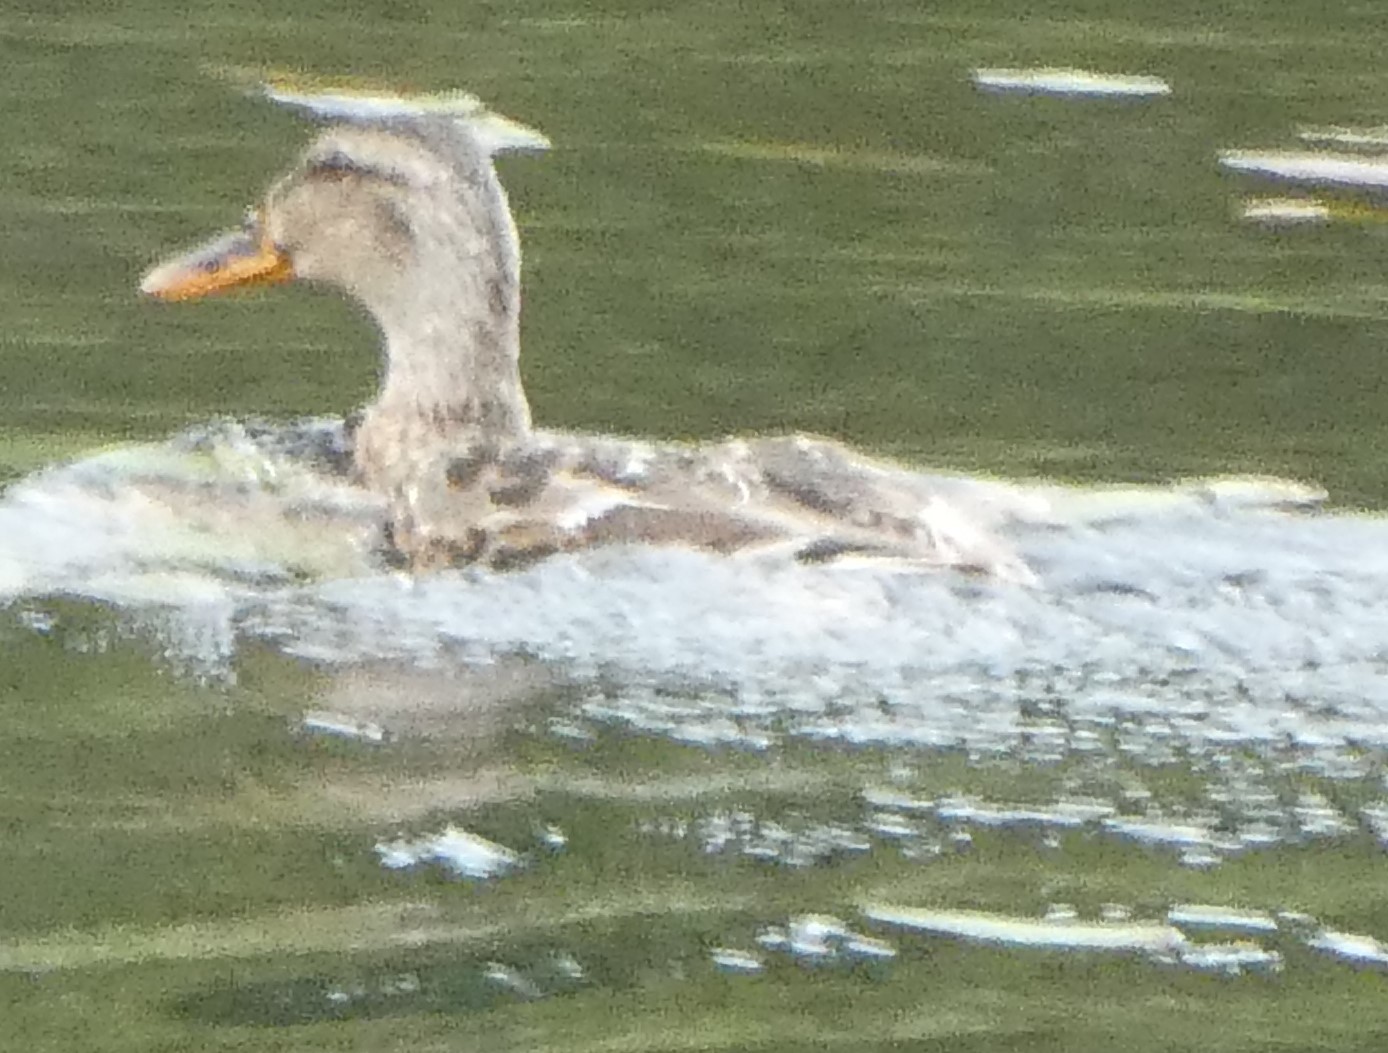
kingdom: Animalia
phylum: Chordata
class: Aves
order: Anseriformes
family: Anatidae
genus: Anas
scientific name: Anas platyrhynchos
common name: Mallard
